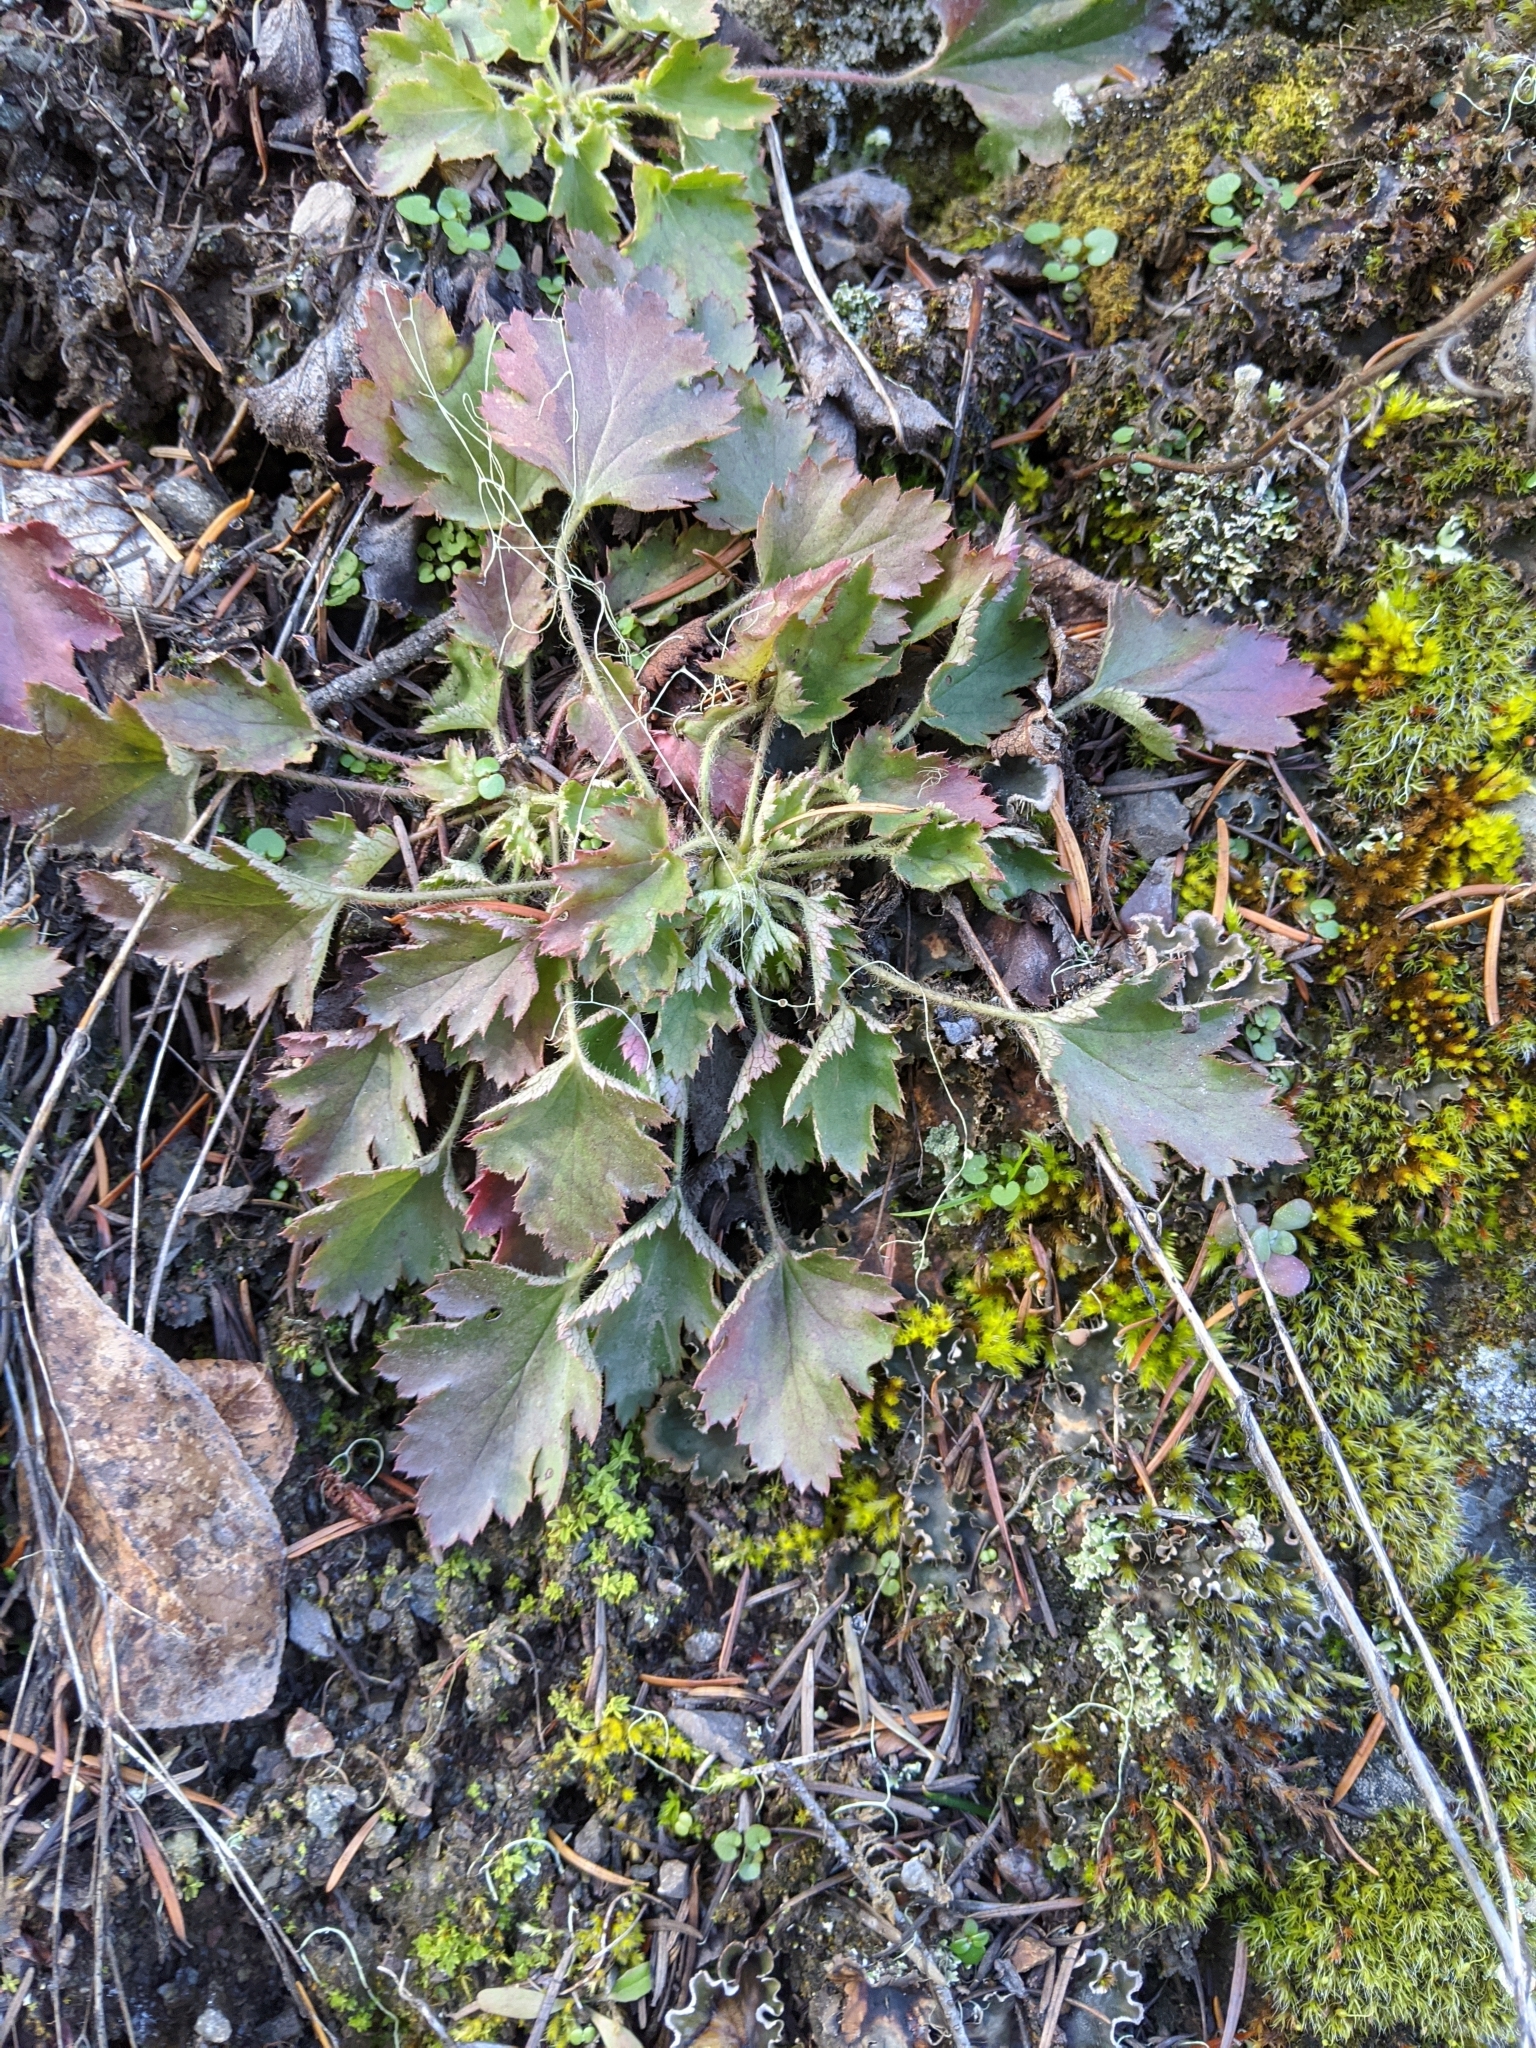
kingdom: Plantae
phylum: Tracheophyta
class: Magnoliopsida
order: Saxifragales
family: Saxifragaceae
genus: Heuchera
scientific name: Heuchera micrantha
